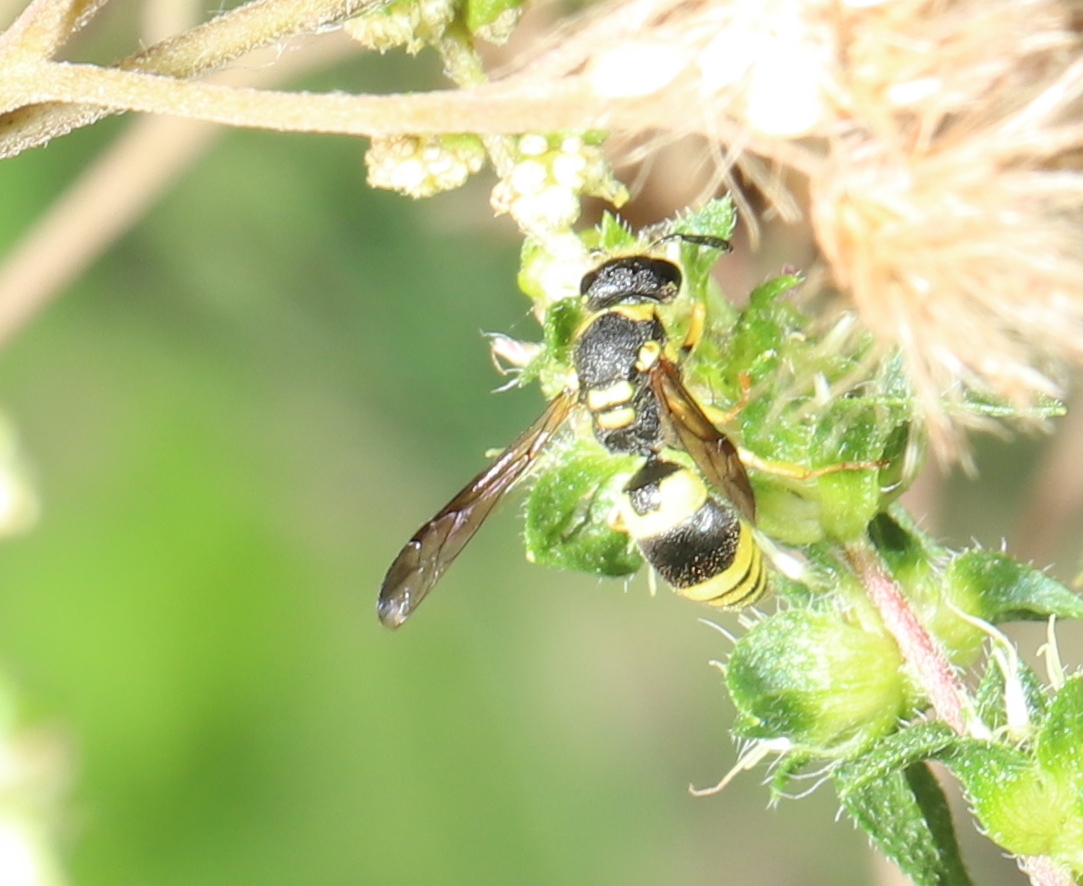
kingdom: Animalia
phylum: Arthropoda
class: Insecta
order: Hymenoptera
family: Vespidae
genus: Ancistrocerus
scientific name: Ancistrocerus gazella
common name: European tube wasp
